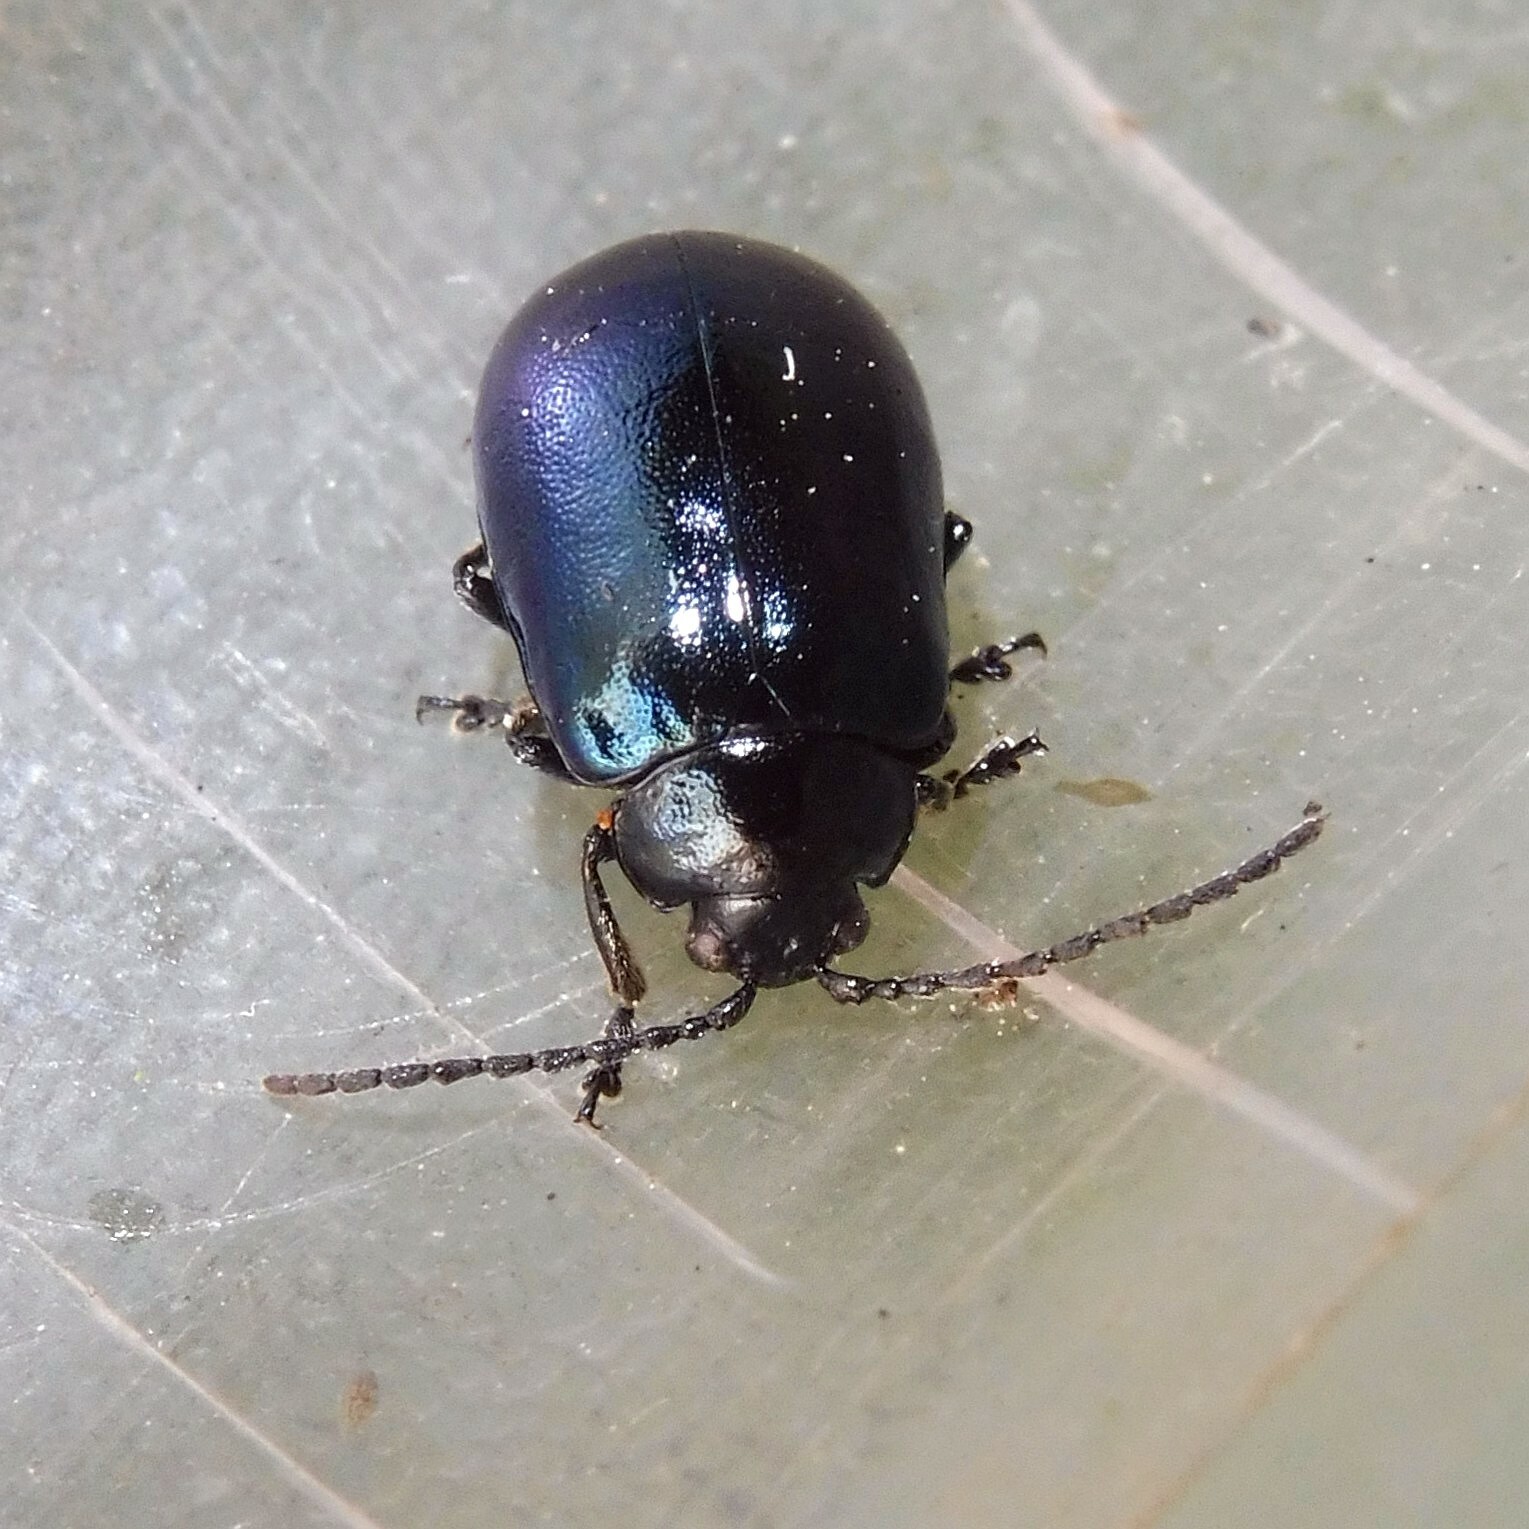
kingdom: Animalia
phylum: Arthropoda
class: Insecta
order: Coleoptera
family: Chrysomelidae
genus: Agelastica
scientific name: Agelastica alni
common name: Alder leaf beetle
